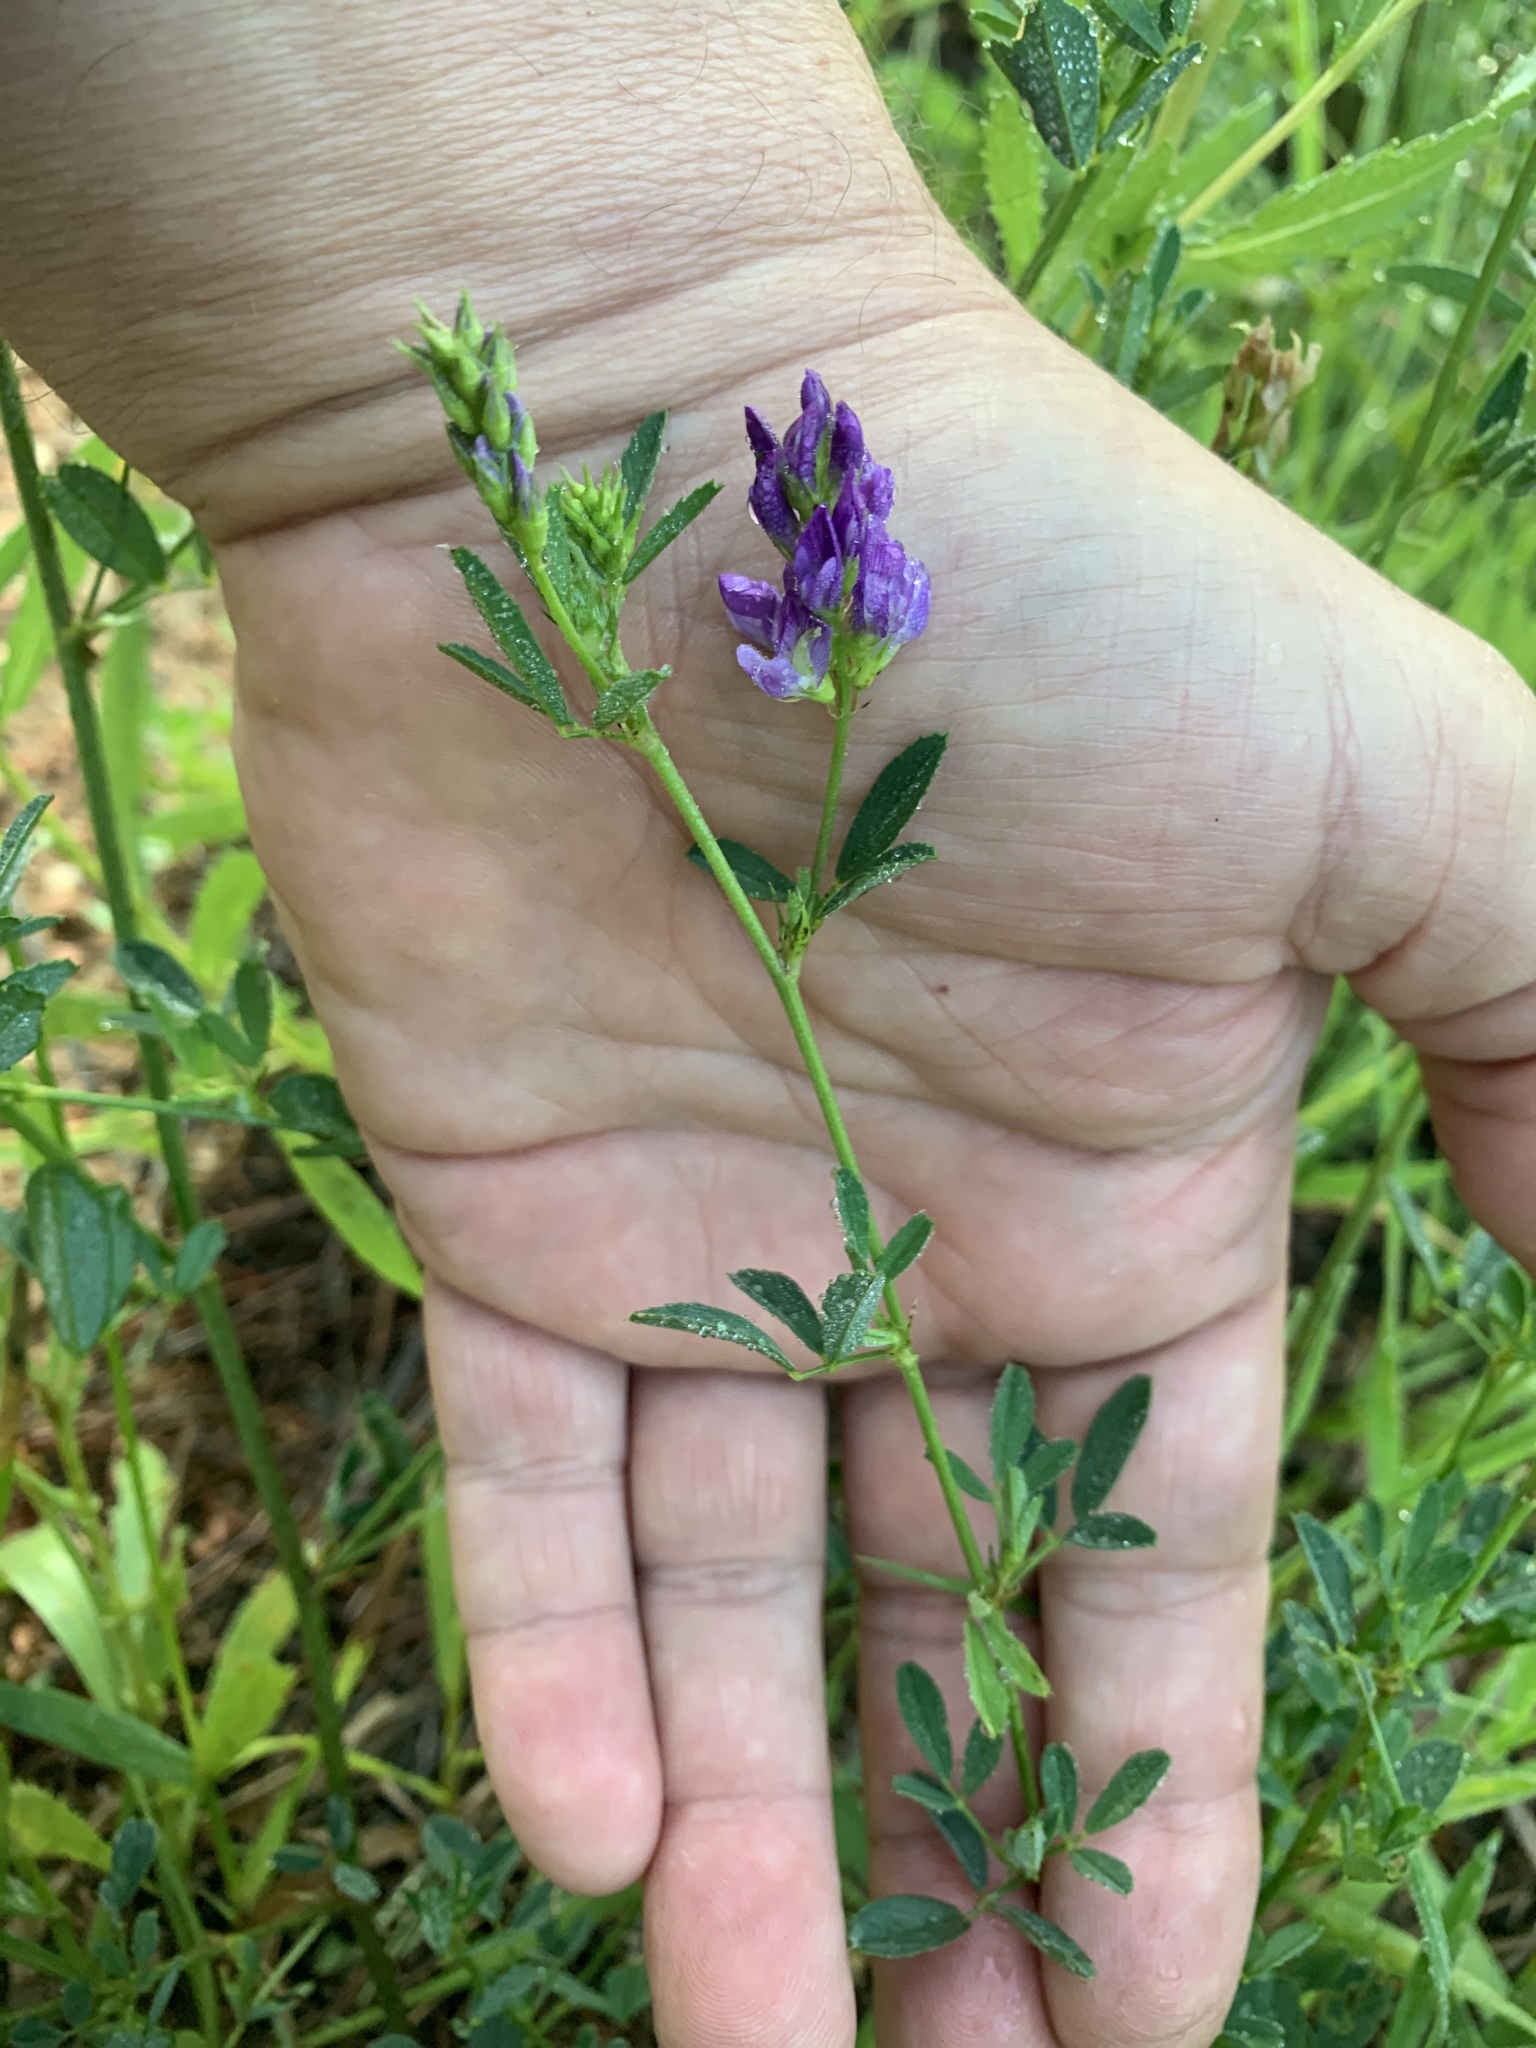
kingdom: Plantae
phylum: Tracheophyta
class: Magnoliopsida
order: Fabales
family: Fabaceae
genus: Medicago
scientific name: Medicago sativa
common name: Alfalfa
